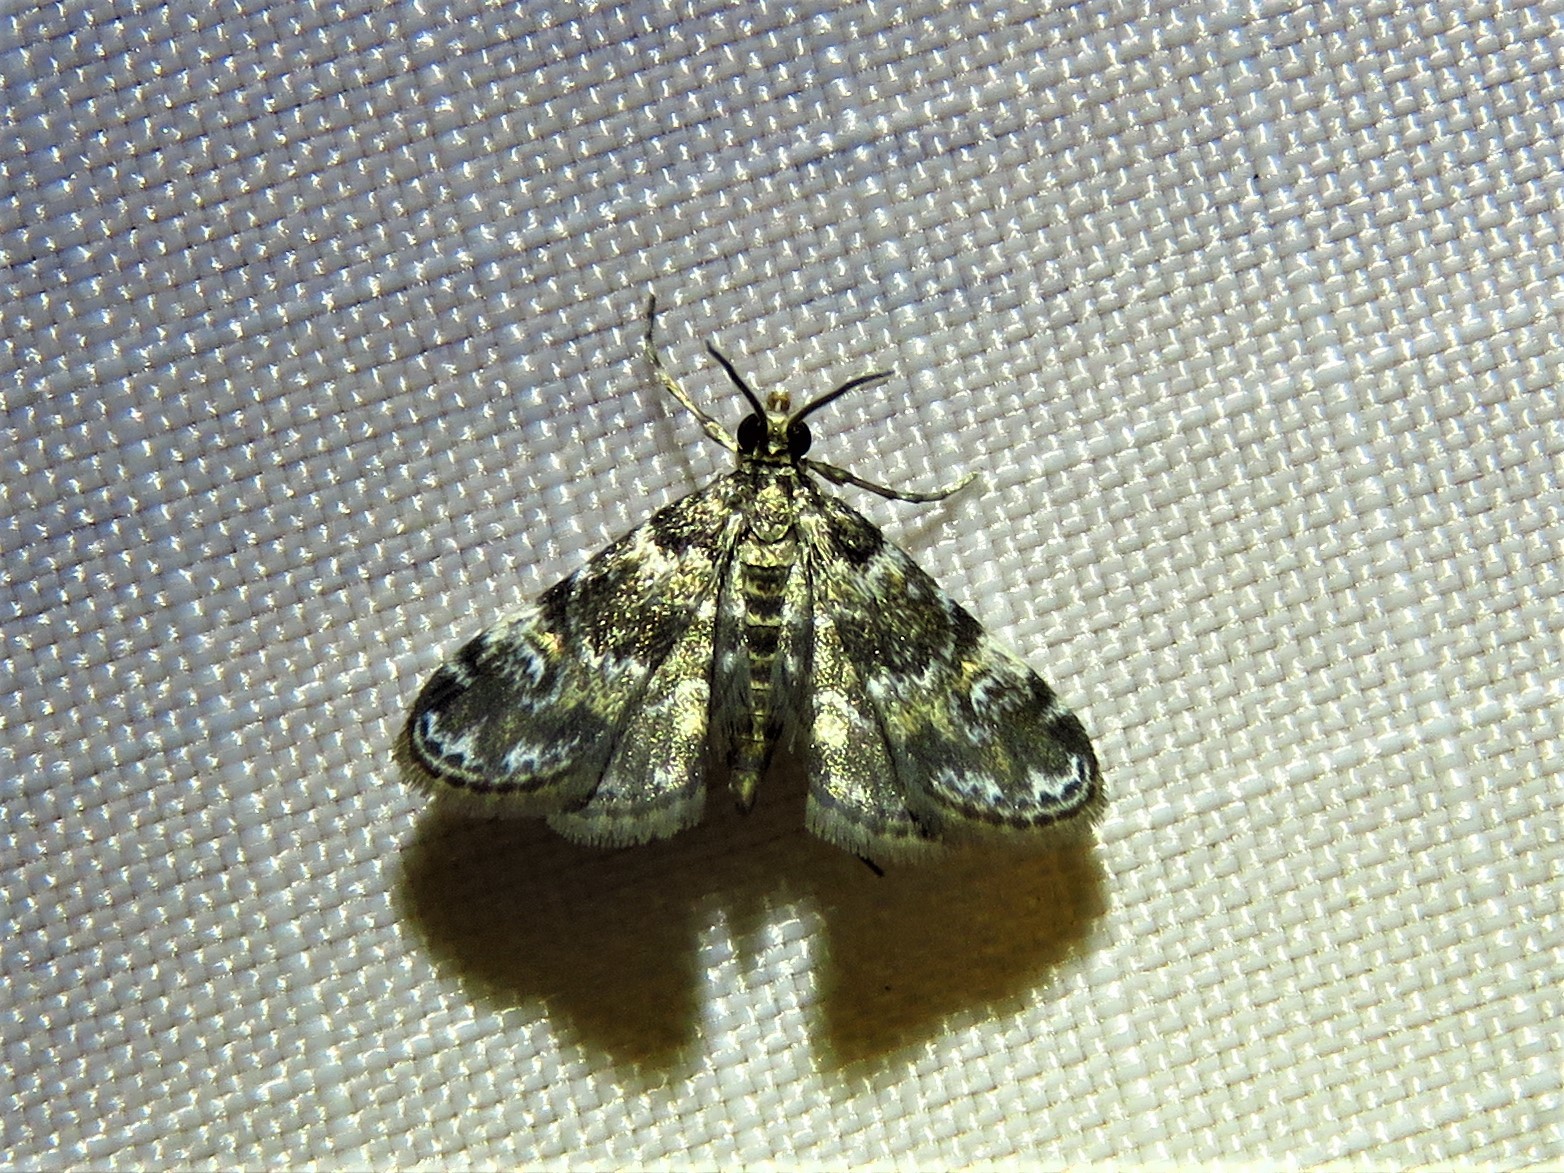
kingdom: Animalia
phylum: Arthropoda
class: Insecta
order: Lepidoptera
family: Crambidae
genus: Elophila
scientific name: Elophila obliteralis
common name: Waterlily leafcutter moth
